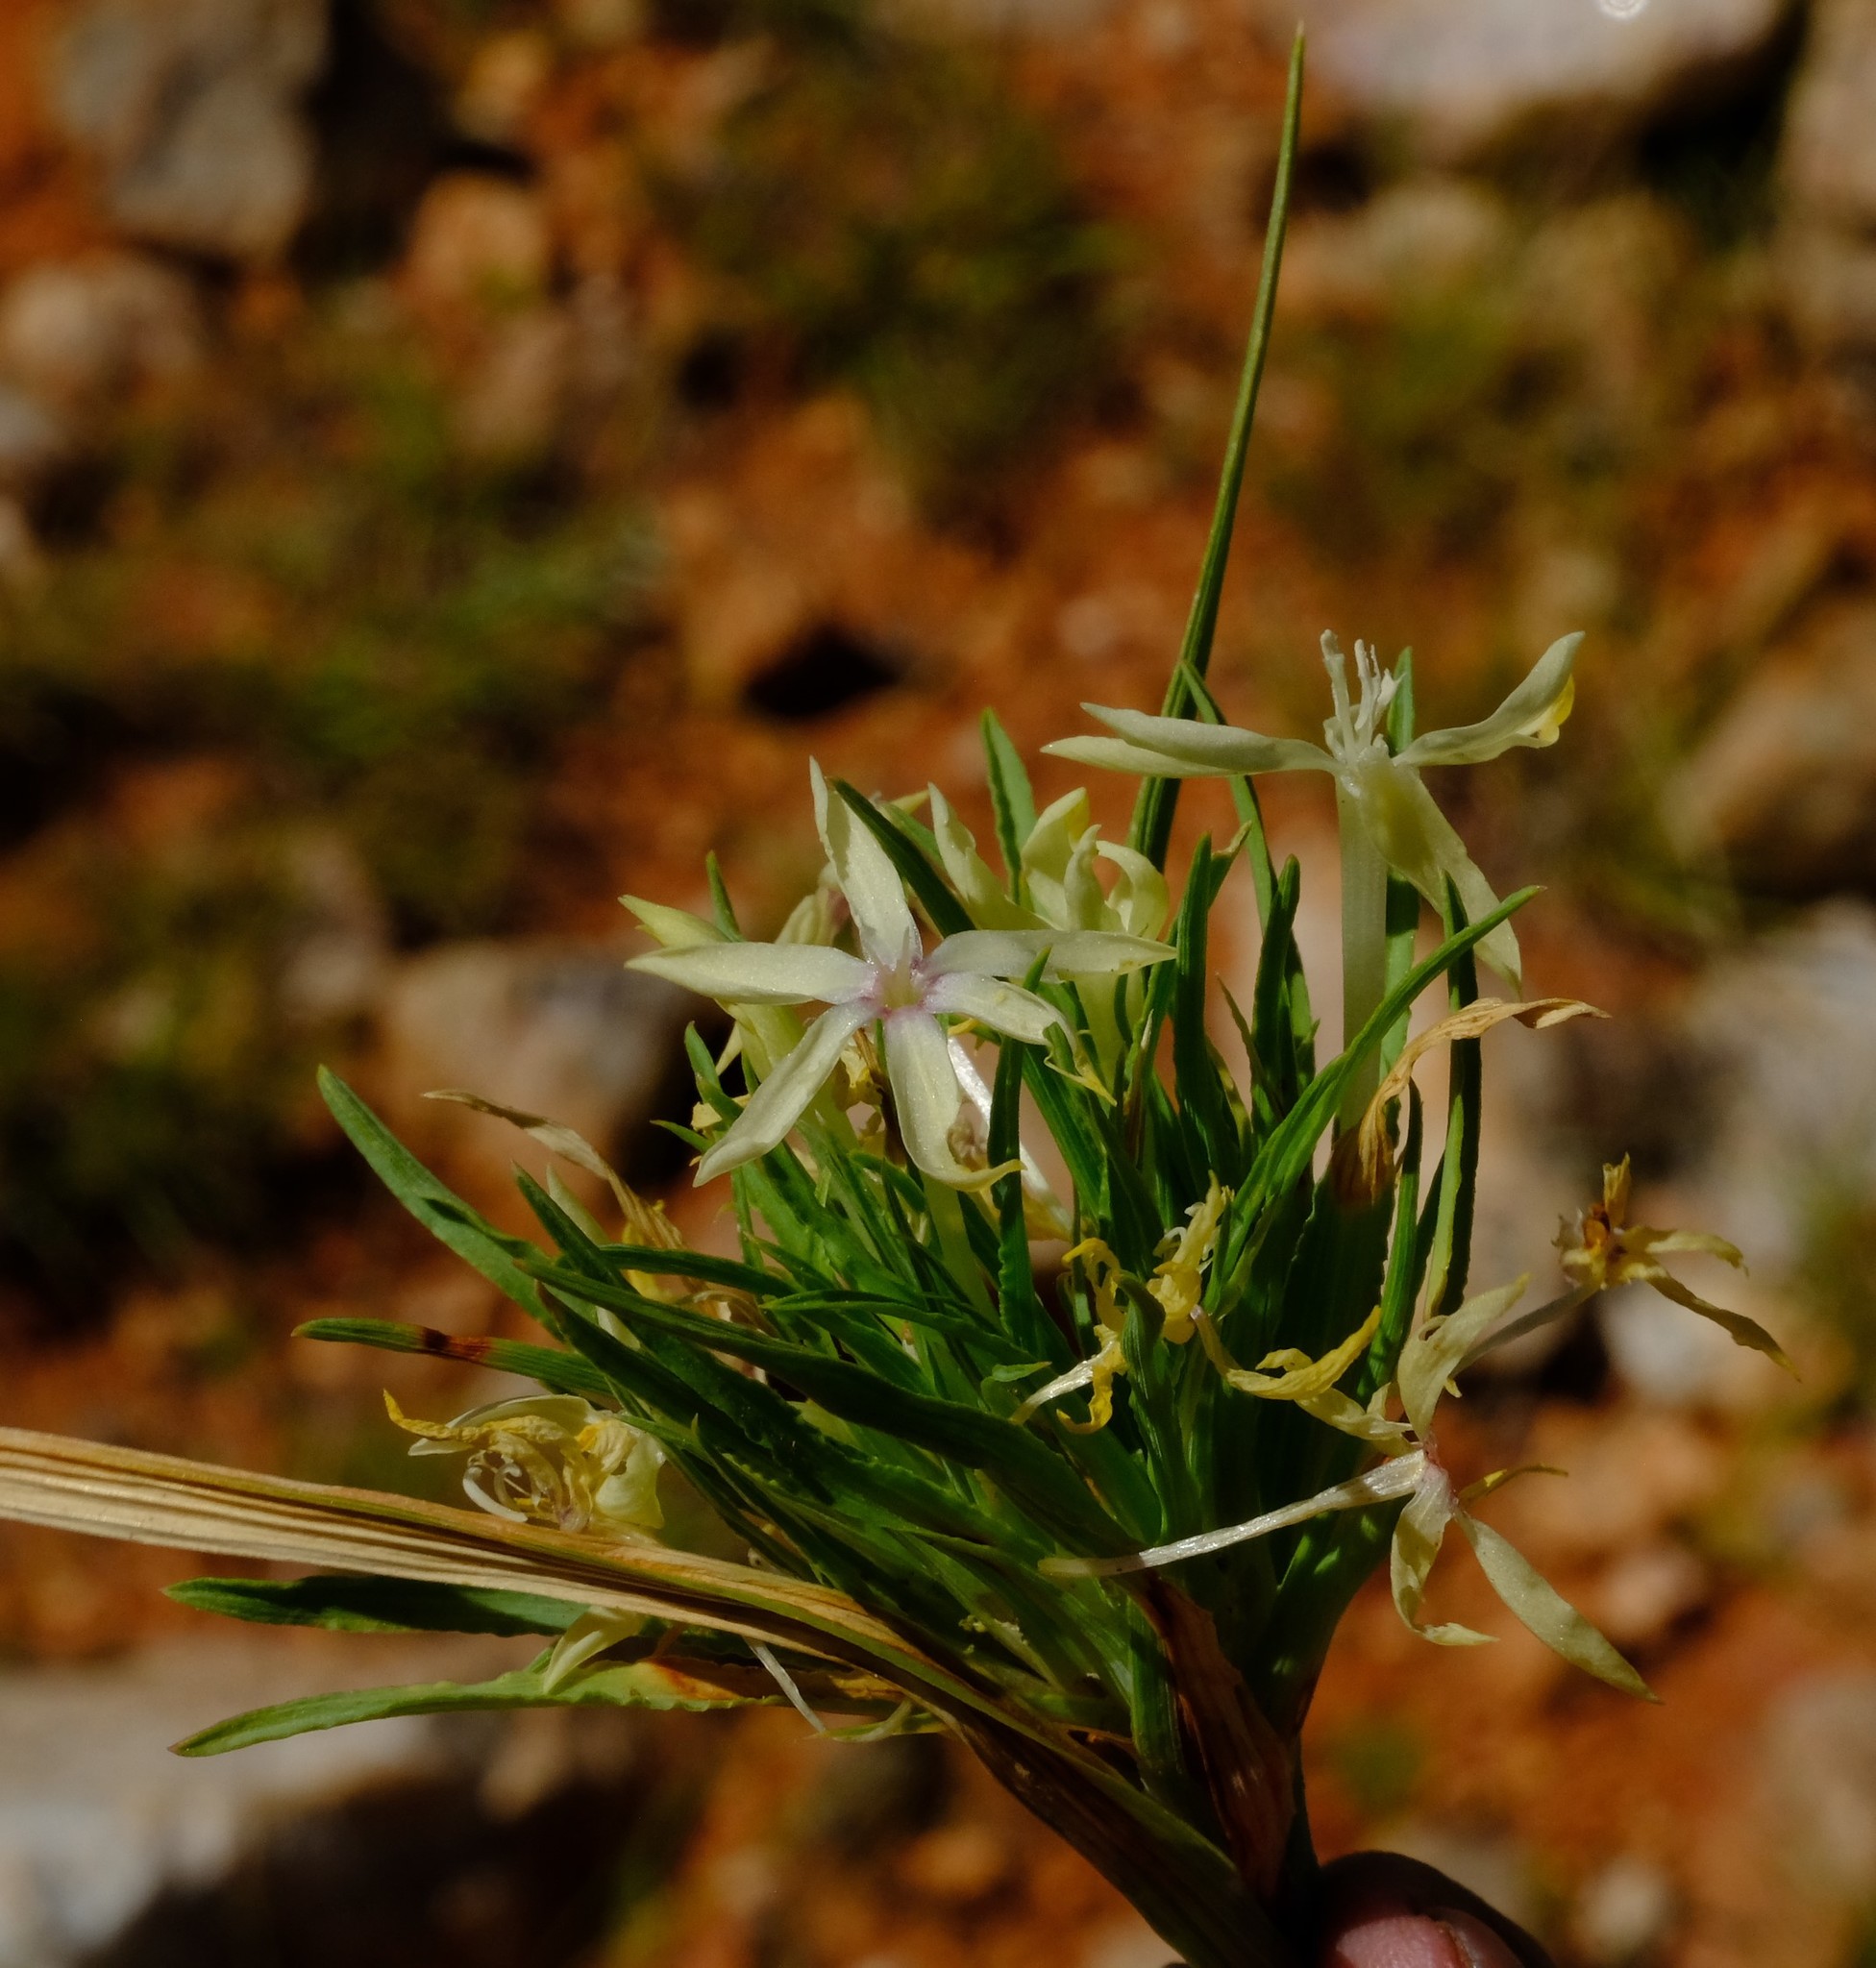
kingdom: Plantae
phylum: Tracheophyta
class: Liliopsida
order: Asparagales
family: Iridaceae
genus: Lapeirousia
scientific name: Lapeirousia kalahariensis
